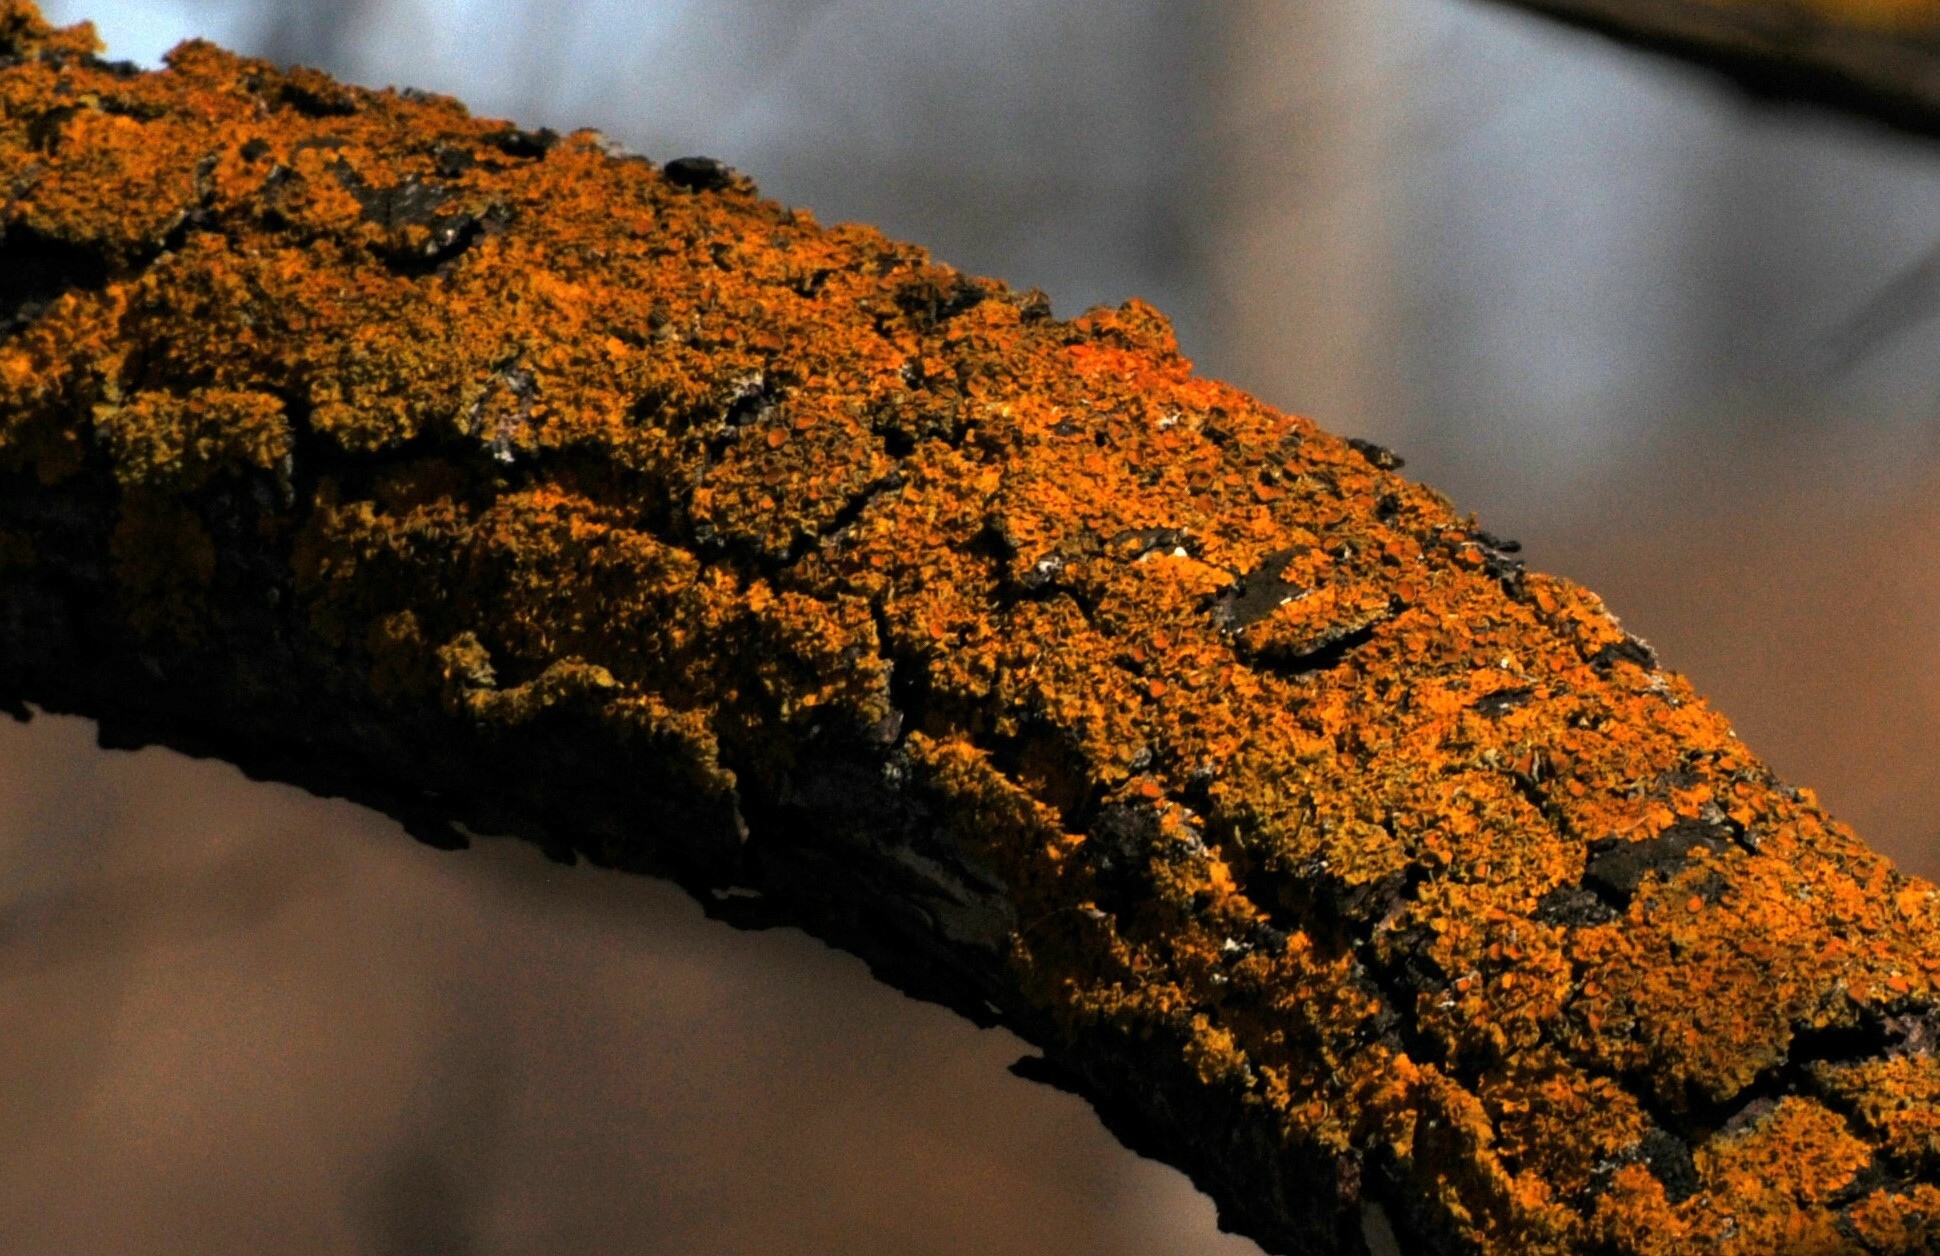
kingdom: Fungi
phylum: Ascomycota
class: Lecanoromycetes
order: Teloschistales
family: Teloschistaceae
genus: Xanthoria
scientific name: Xanthoria parietina
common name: Common orange lichen
